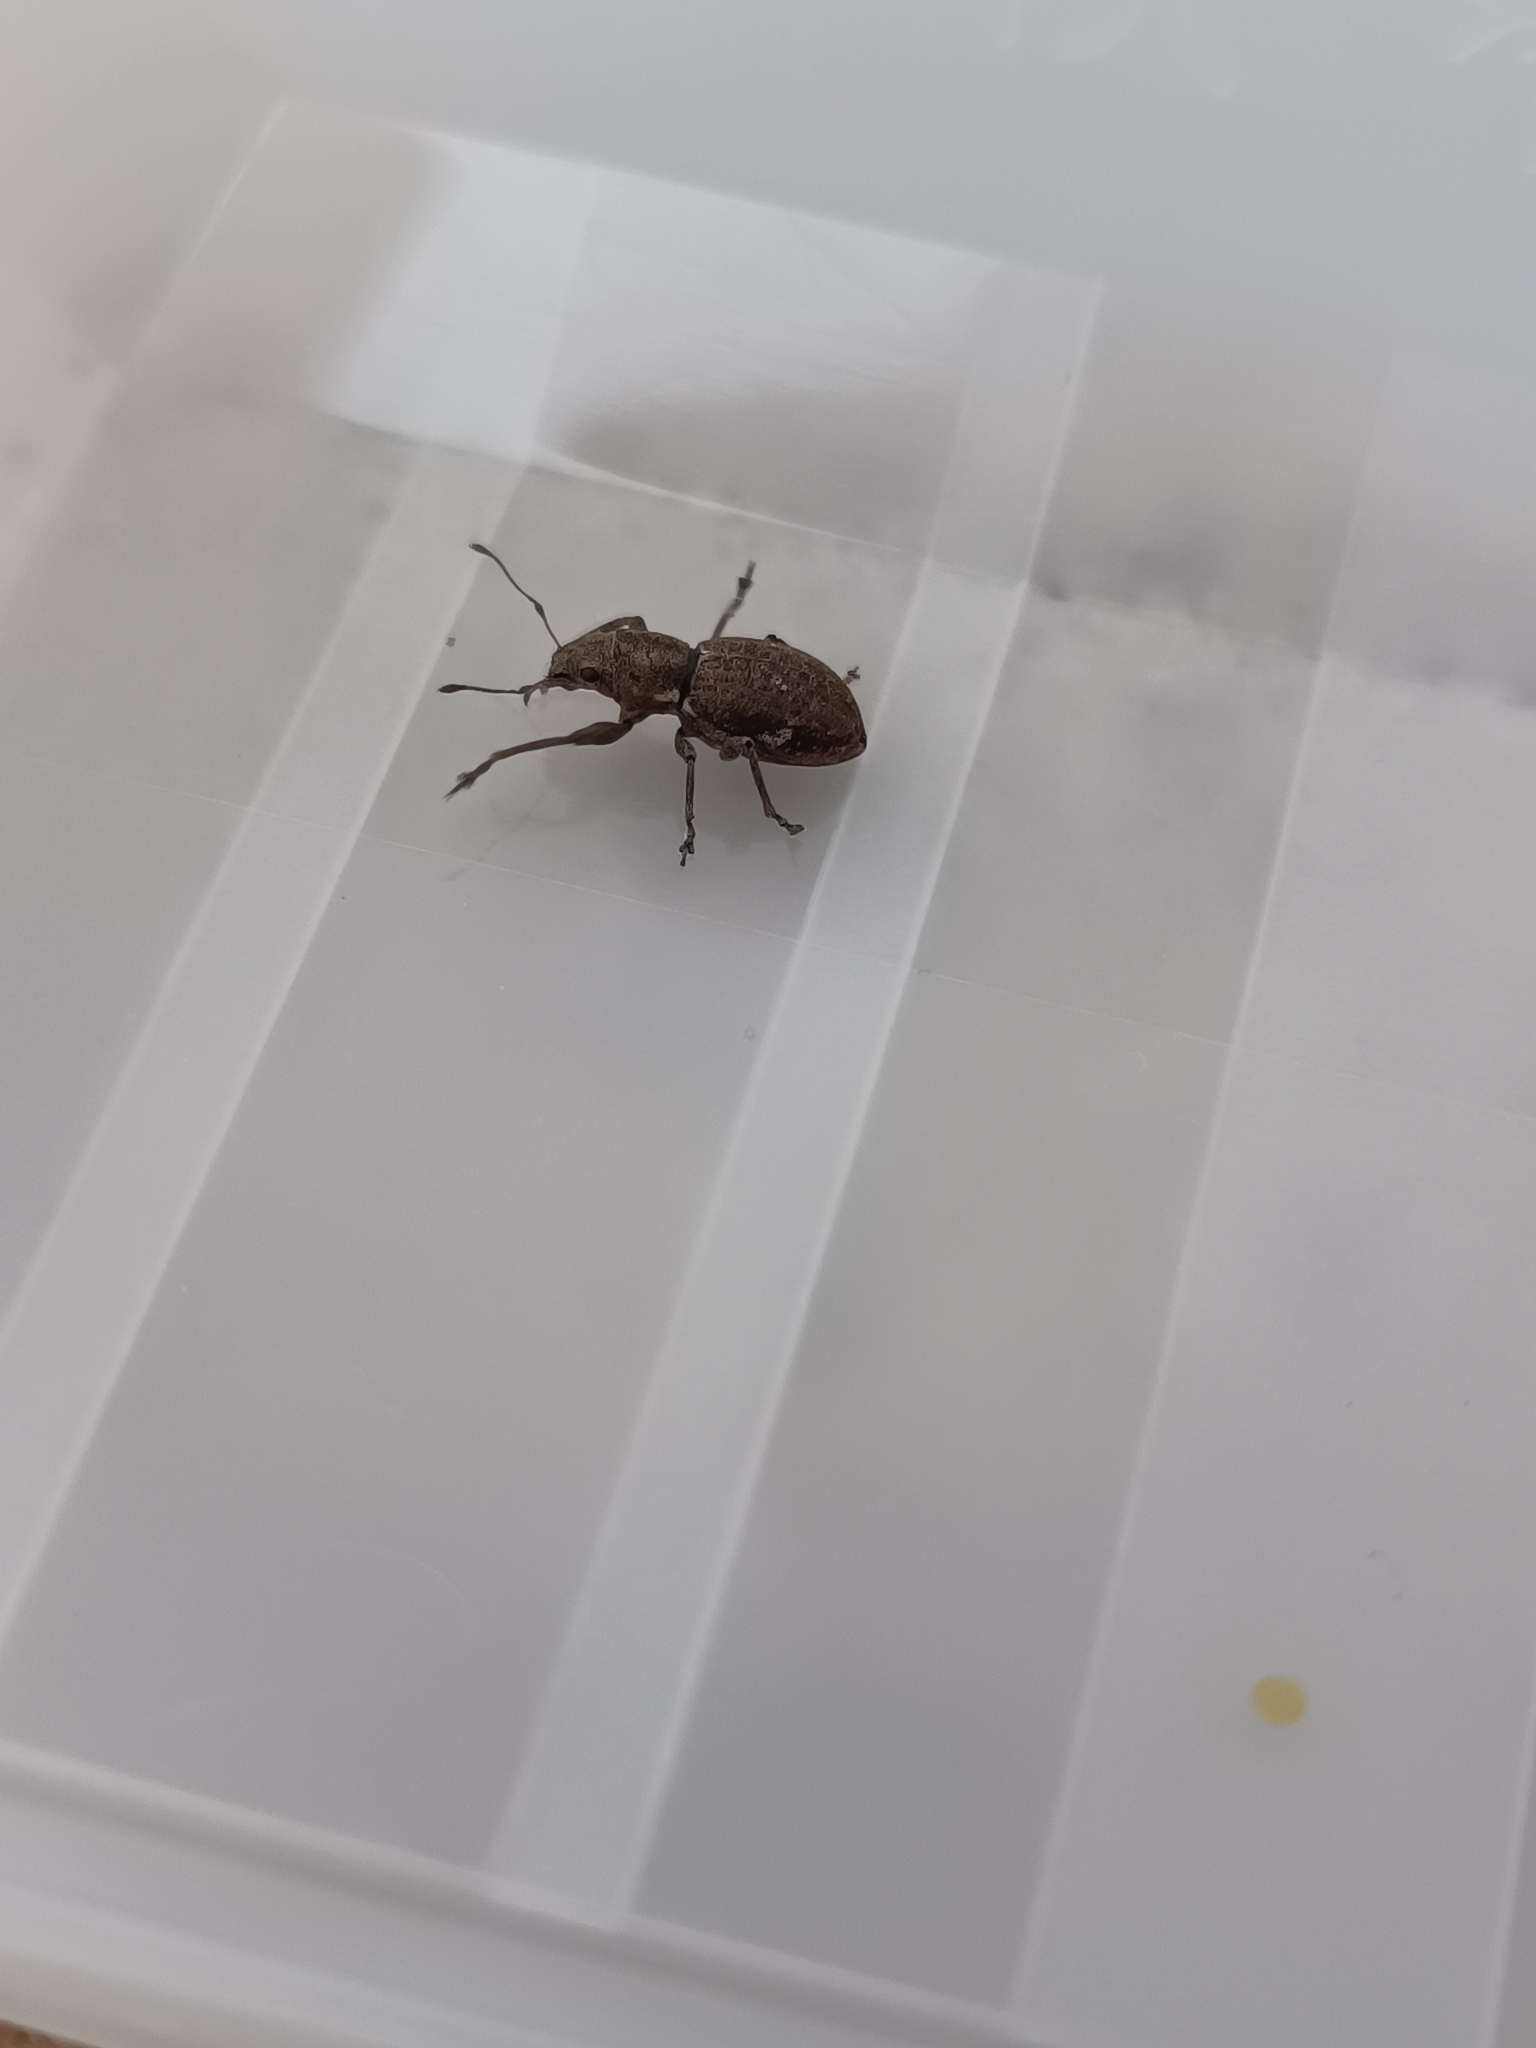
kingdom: Animalia
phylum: Arthropoda
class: Insecta
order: Coleoptera
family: Curculionidae
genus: Naupactus
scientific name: Naupactus cervinus
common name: Fuller rose beetle
